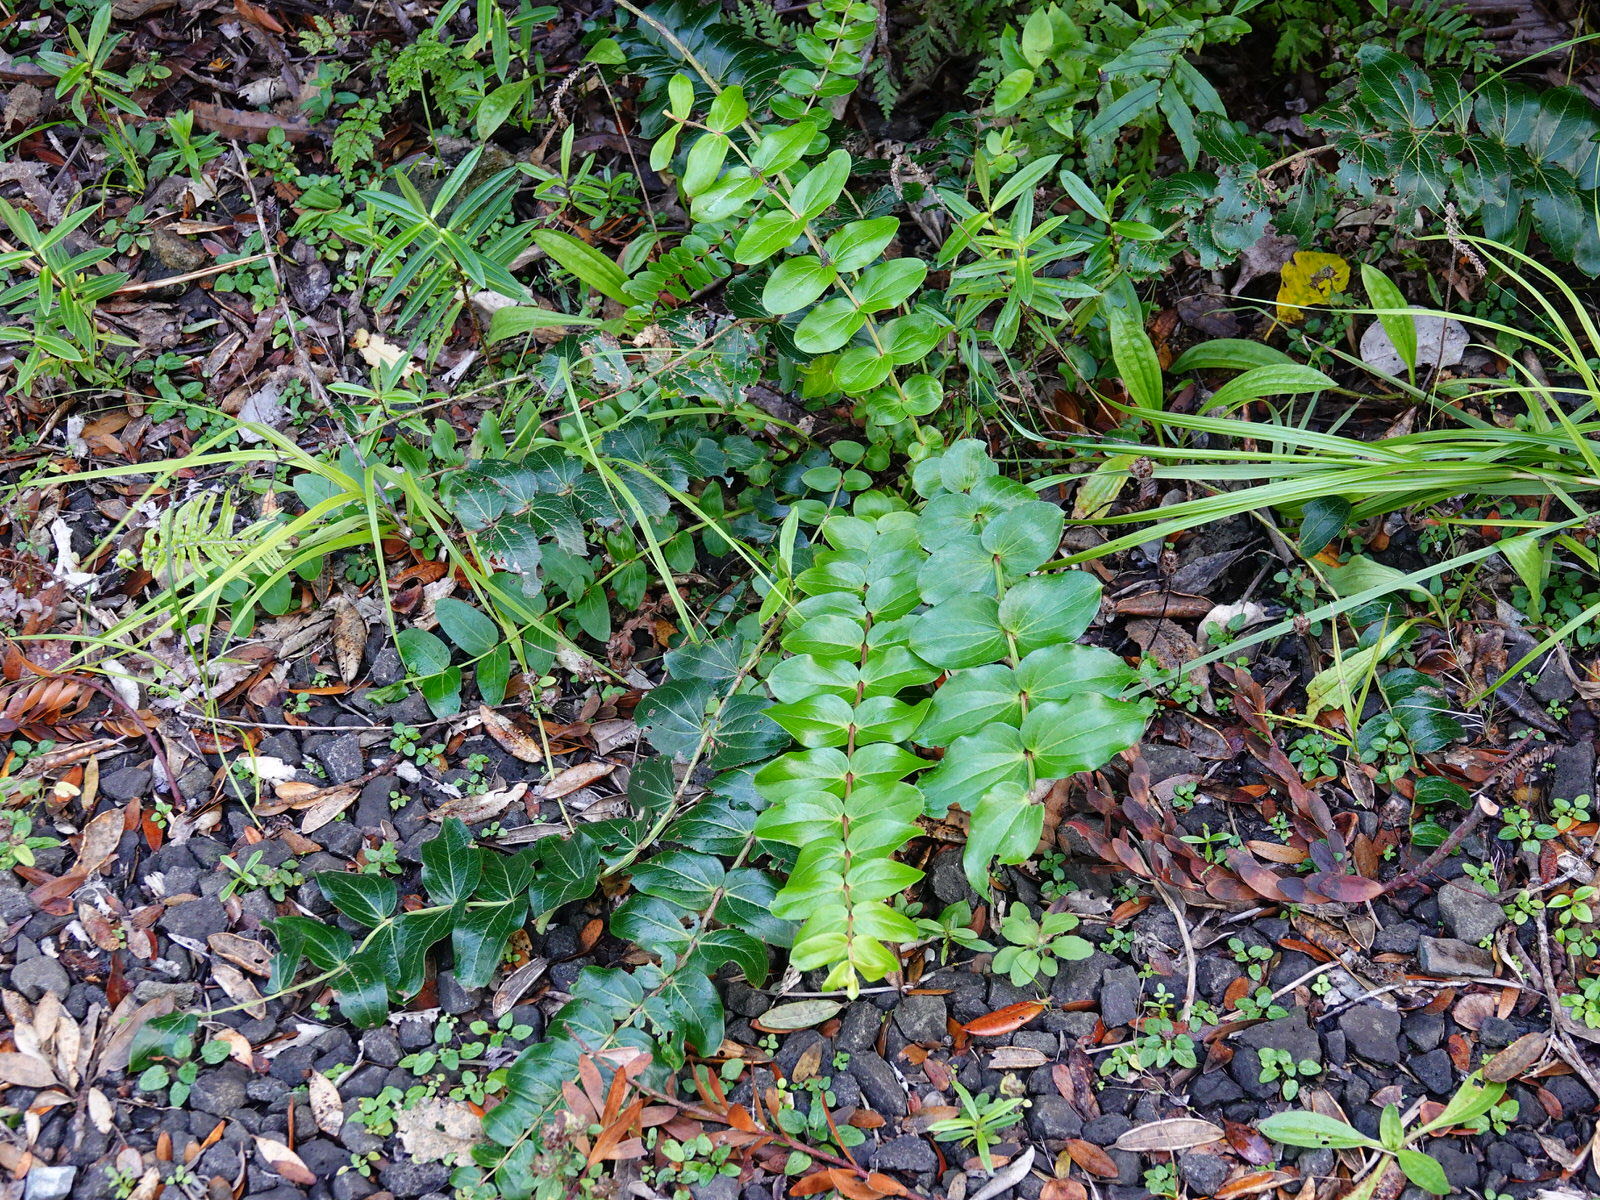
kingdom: Plantae
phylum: Tracheophyta
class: Magnoliopsida
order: Cucurbitales
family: Coriariaceae
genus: Coriaria
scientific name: Coriaria arborea
